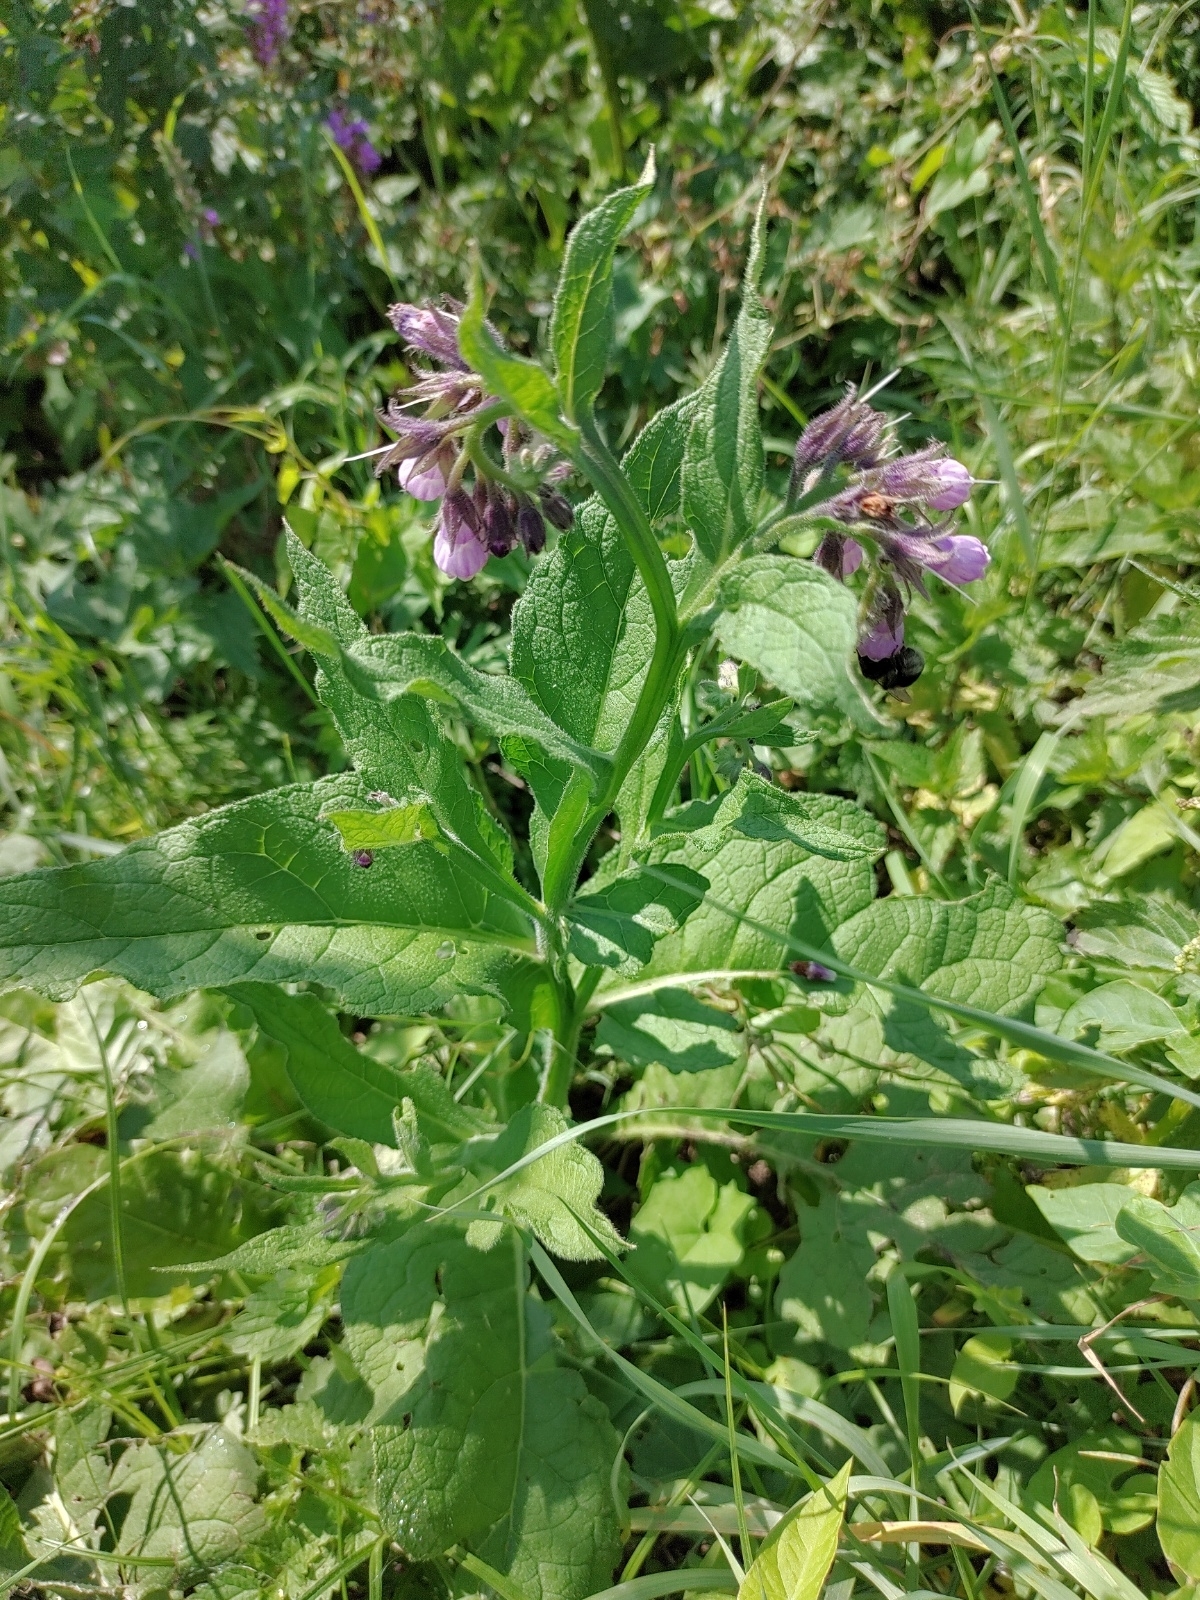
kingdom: Plantae
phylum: Tracheophyta
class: Magnoliopsida
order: Boraginales
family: Boraginaceae
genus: Symphytum
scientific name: Symphytum officinale
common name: Common comfrey
